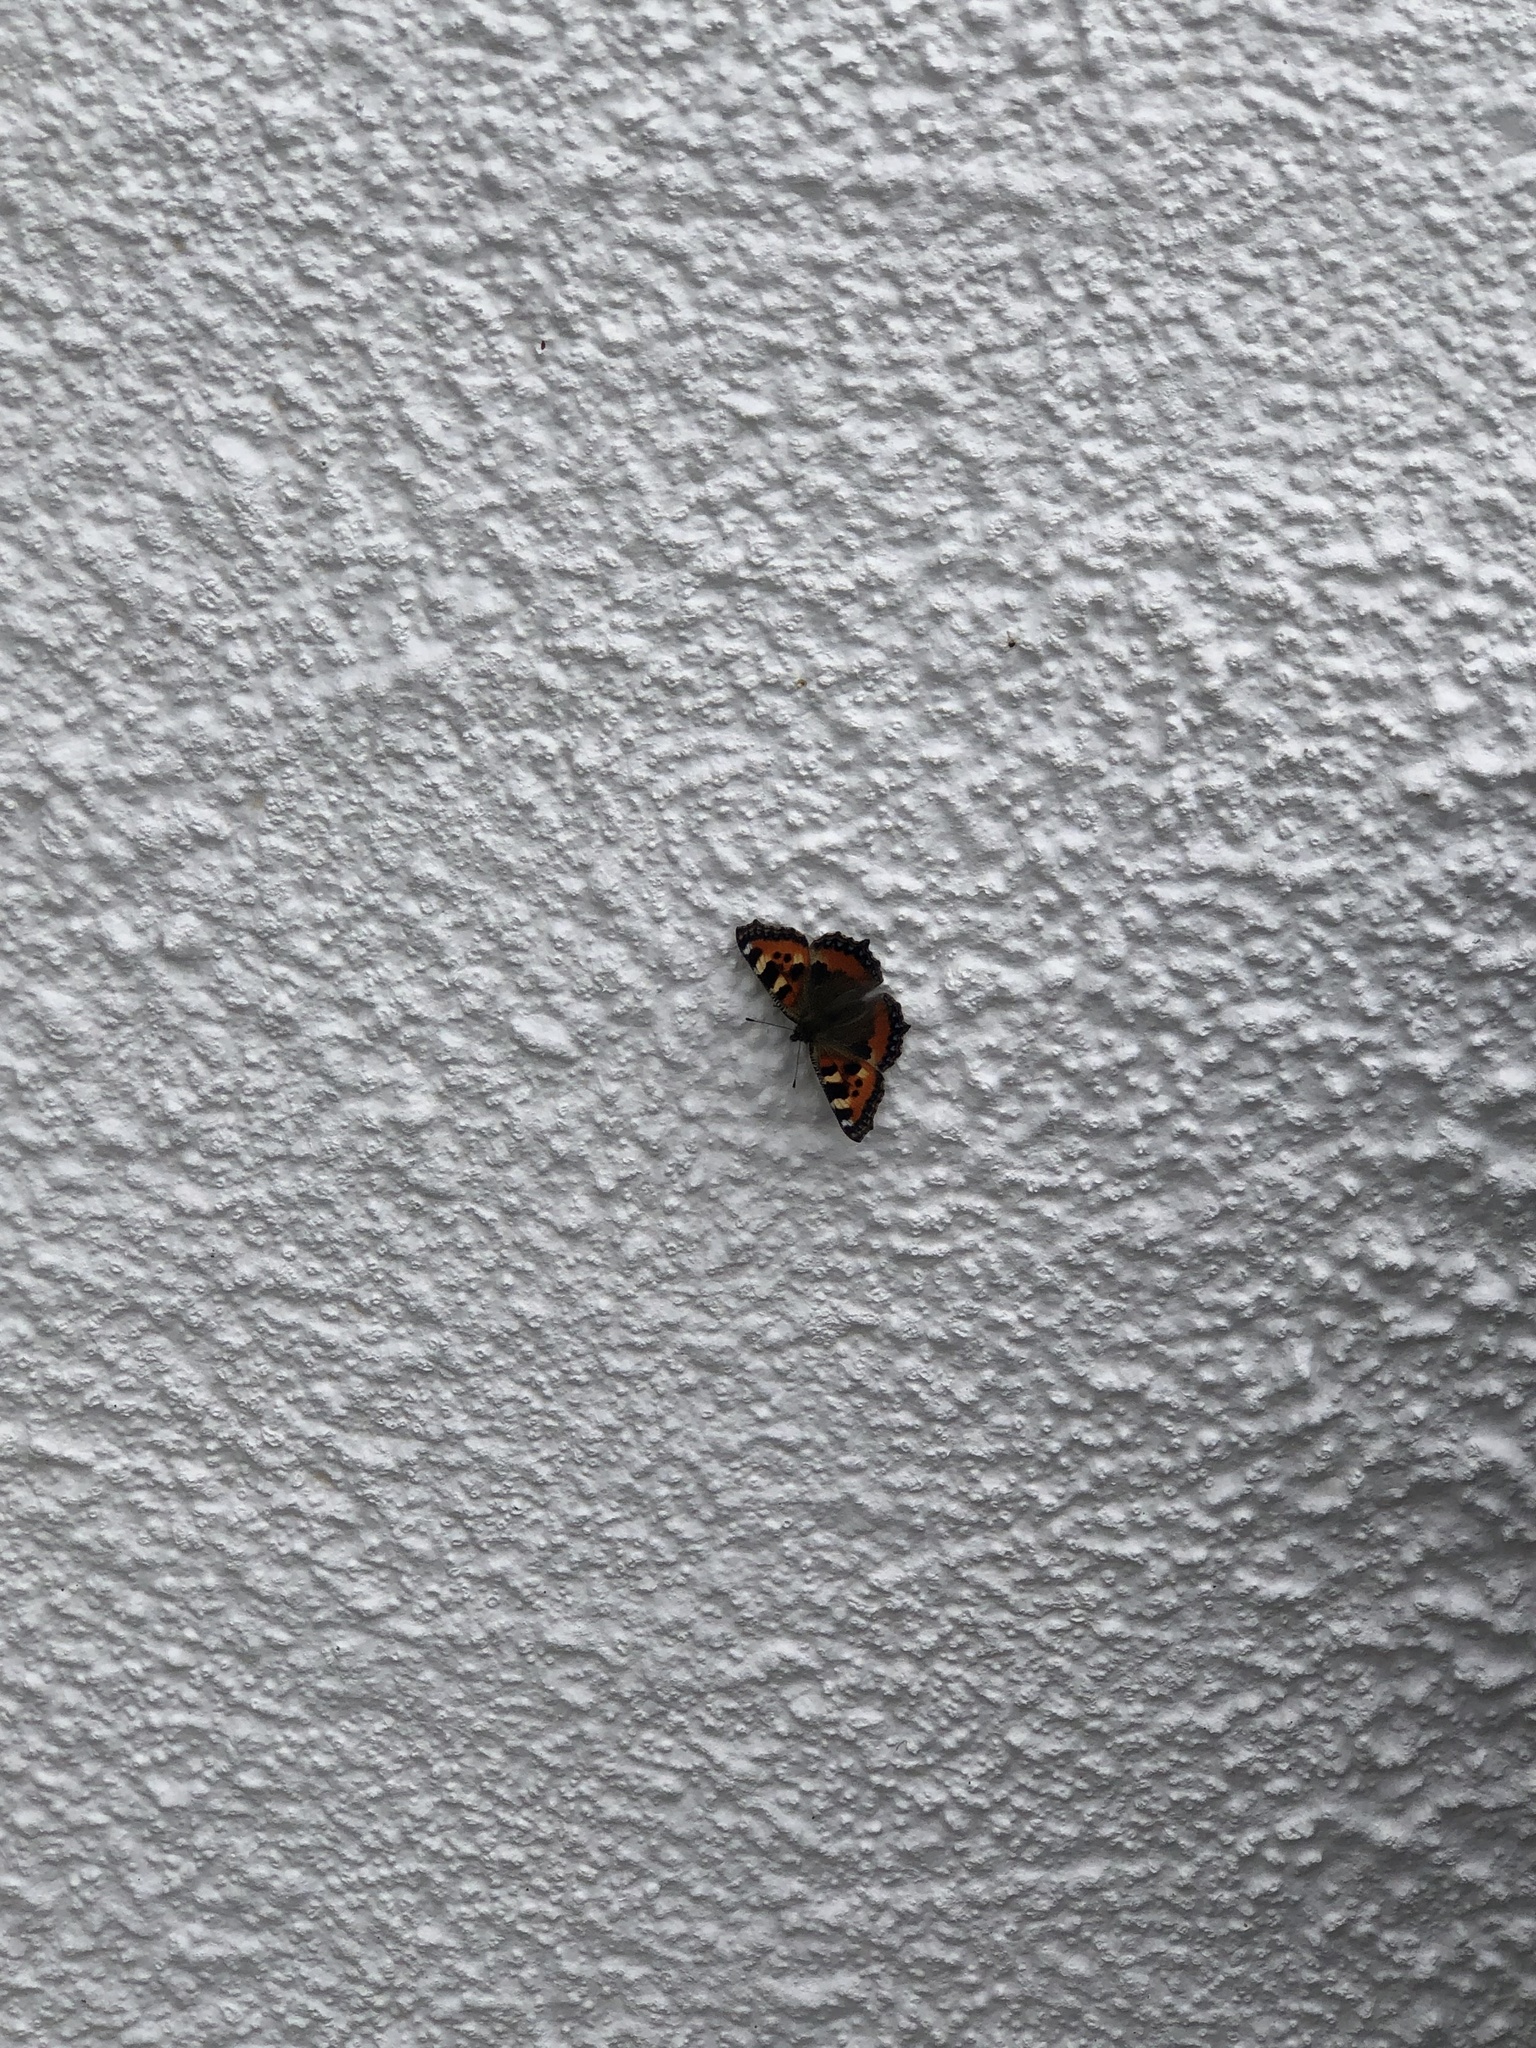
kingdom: Animalia
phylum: Arthropoda
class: Insecta
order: Lepidoptera
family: Nymphalidae
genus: Aglais
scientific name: Aglais urticae
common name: Small tortoiseshell
